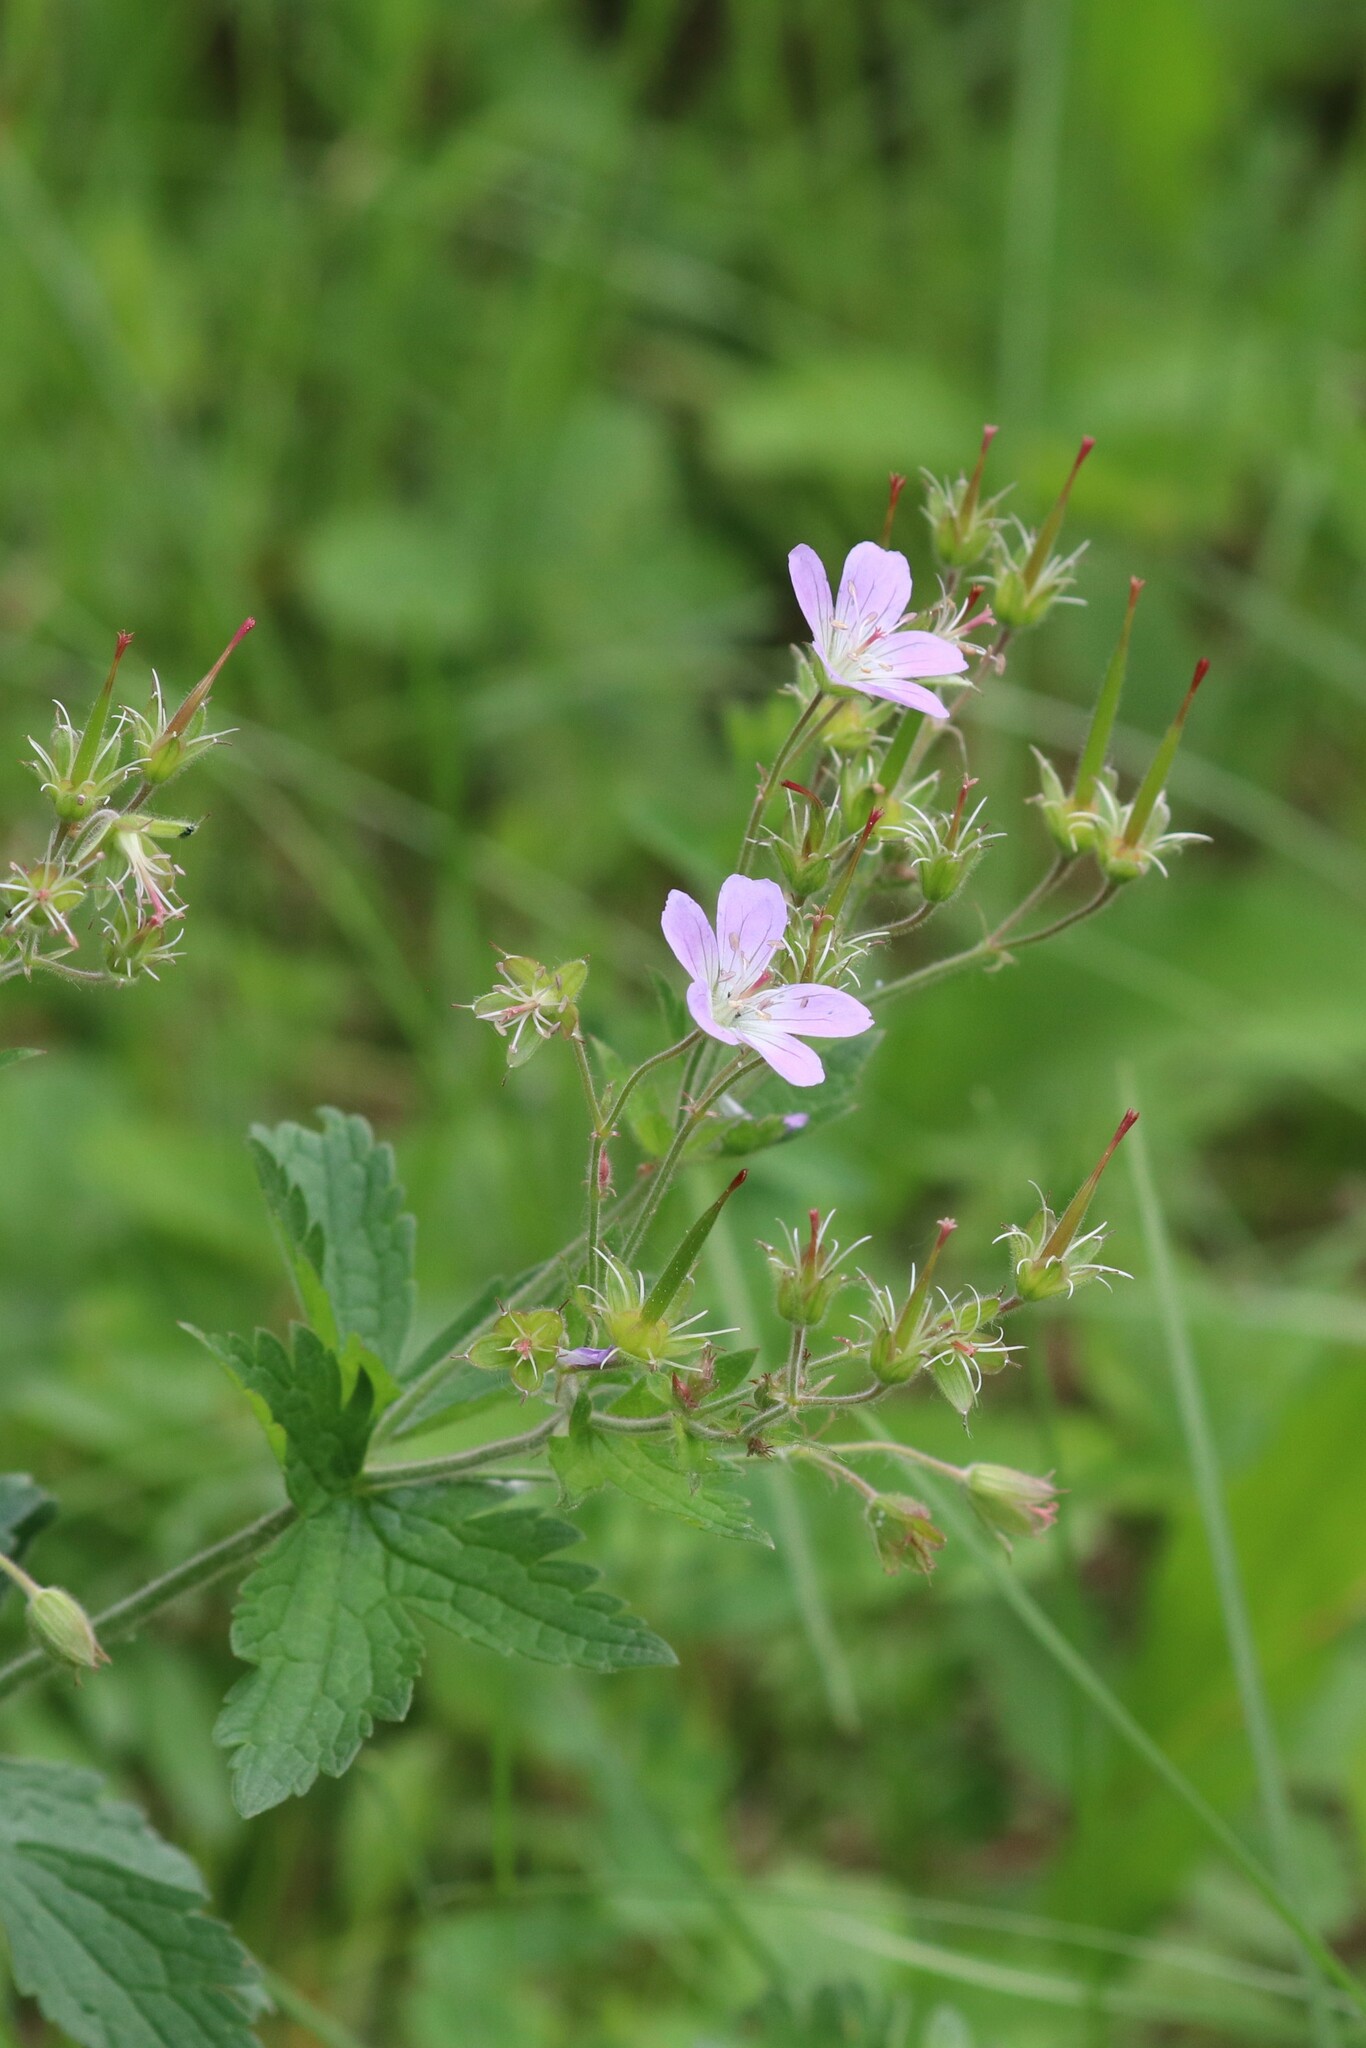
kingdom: Plantae
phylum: Tracheophyta
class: Magnoliopsida
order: Geraniales
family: Geraniaceae
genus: Geranium
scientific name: Geranium sylvaticum
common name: Wood crane's-bill
